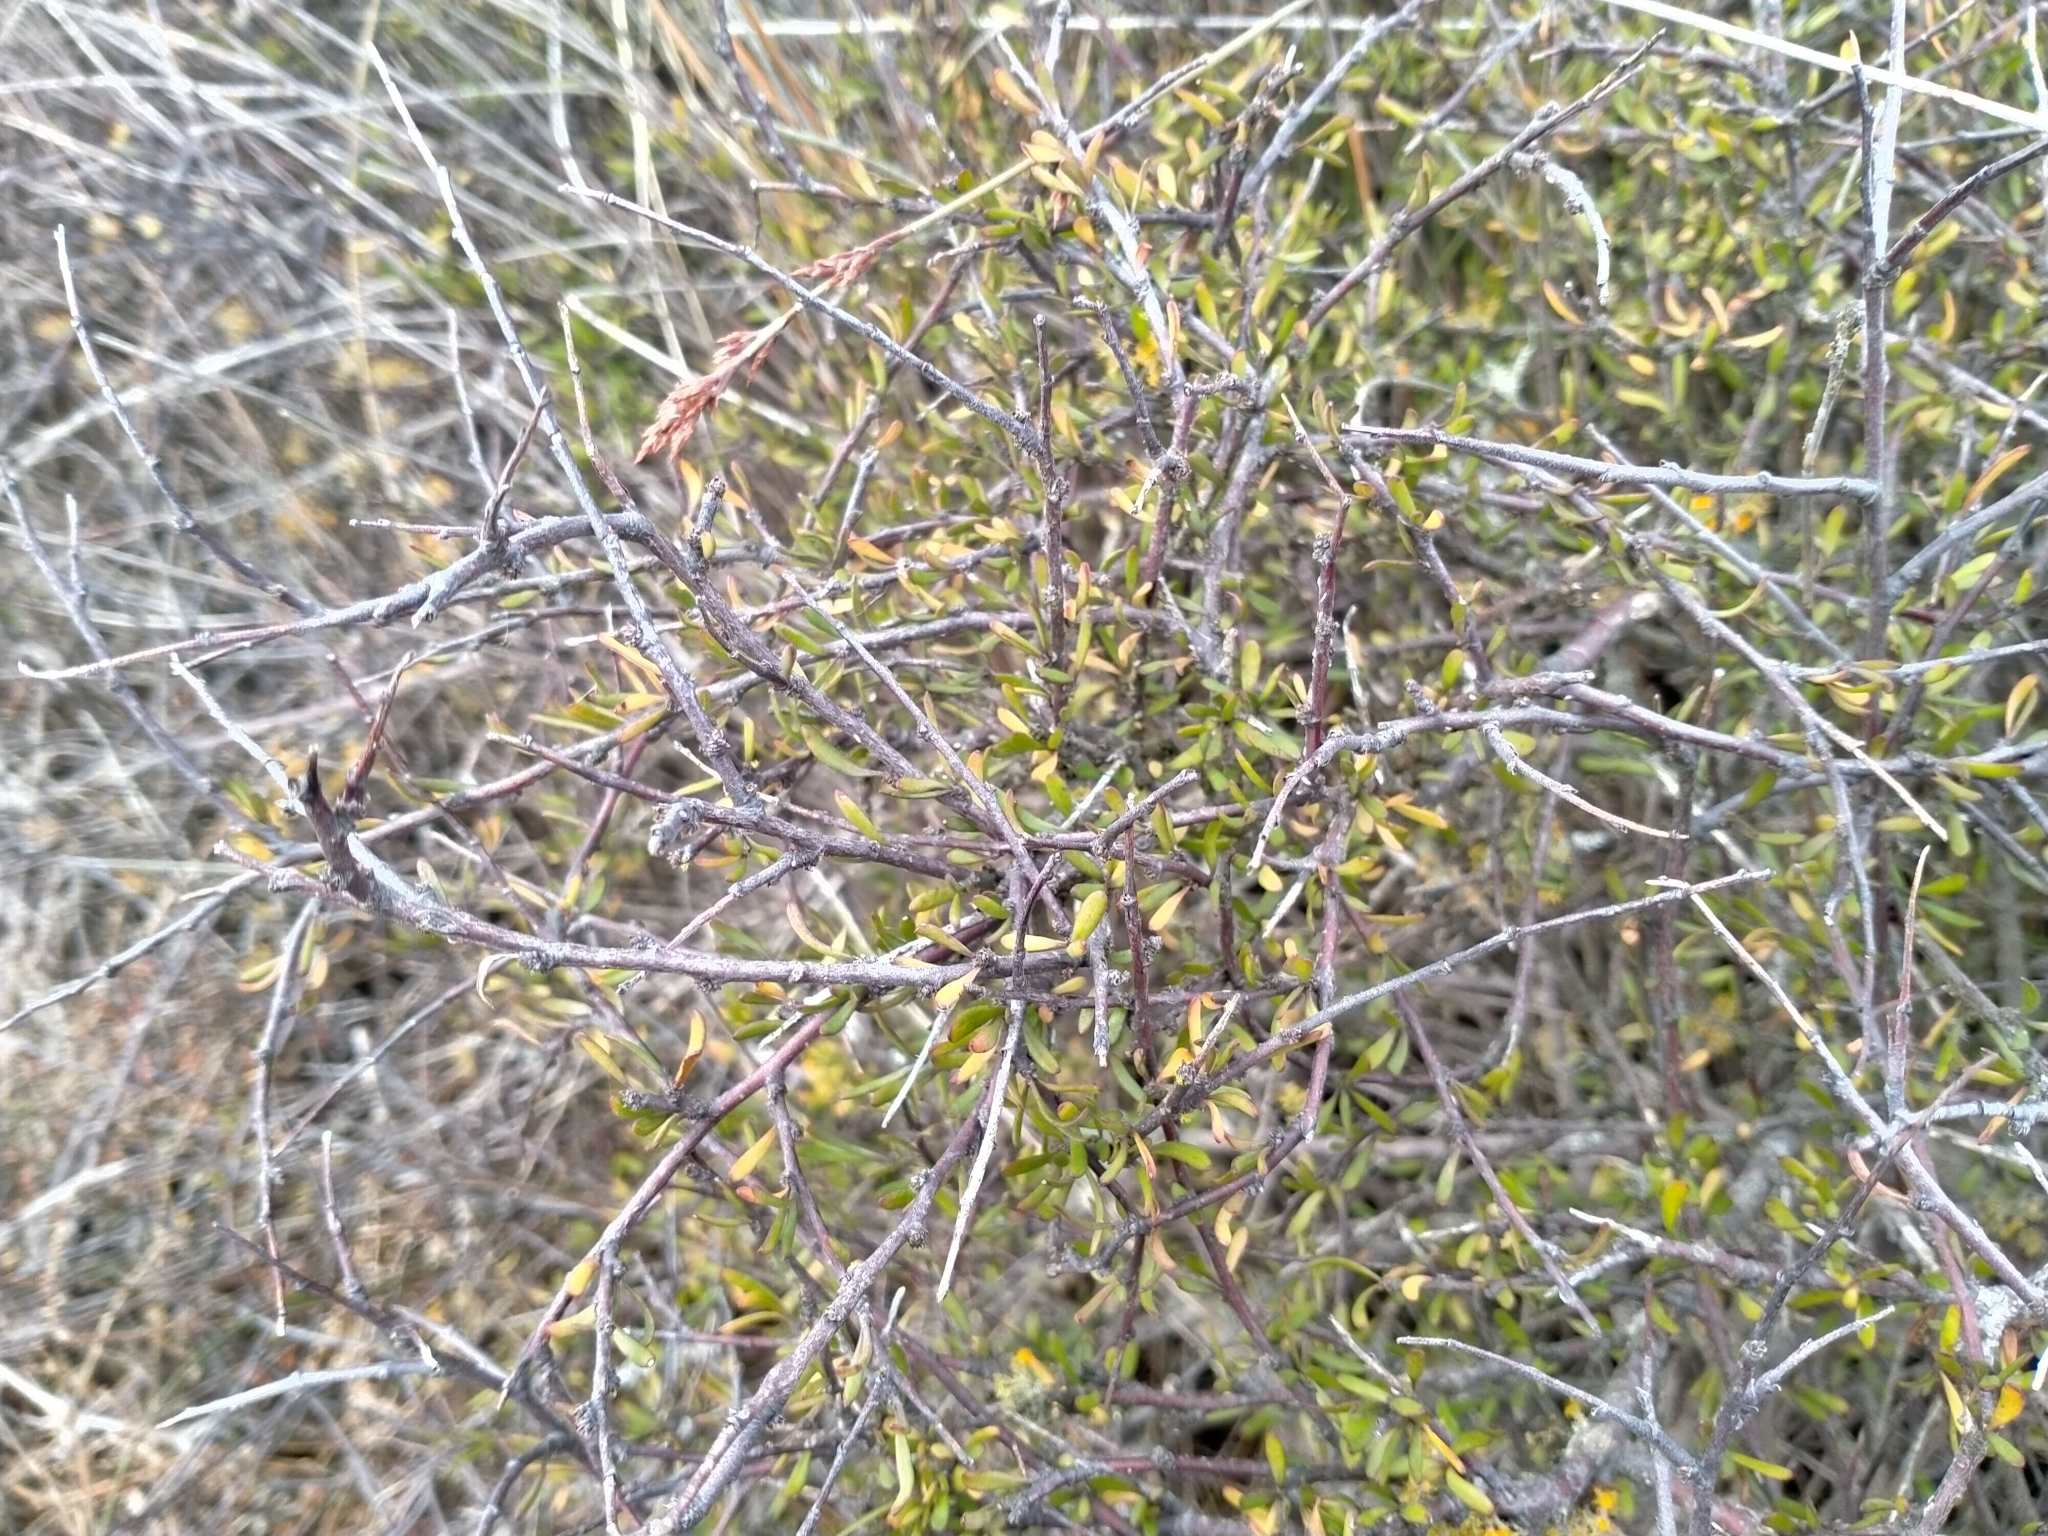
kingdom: Plantae
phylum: Tracheophyta
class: Magnoliopsida
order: Malvales
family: Malvaceae
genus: Plagianthus
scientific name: Plagianthus divaricatus
